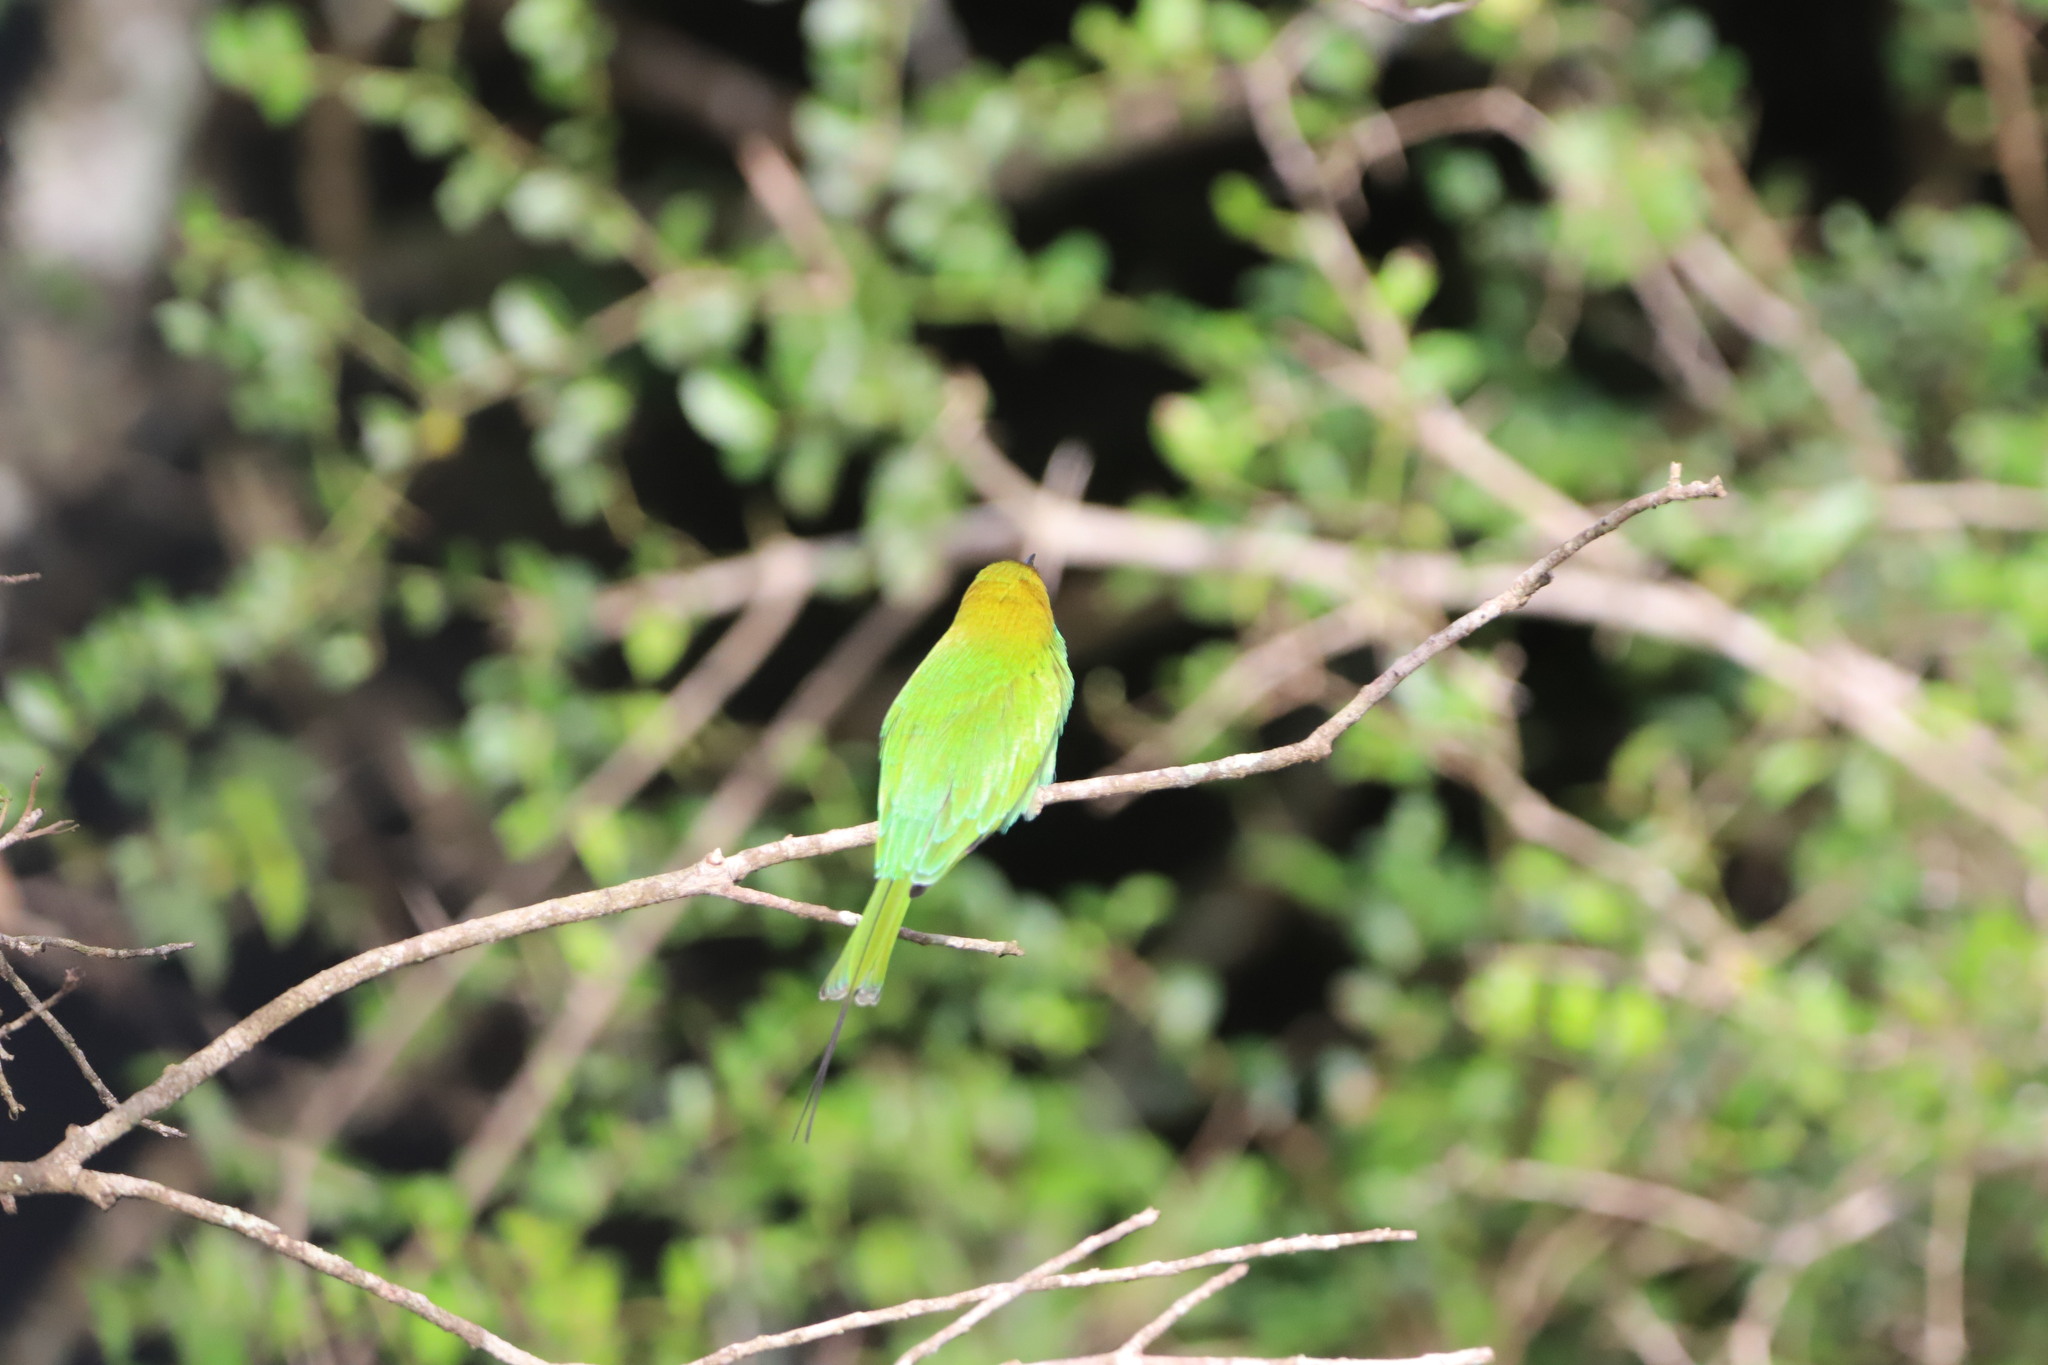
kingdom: Animalia
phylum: Chordata
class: Aves
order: Coraciiformes
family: Meropidae
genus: Merops
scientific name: Merops orientalis
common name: Green bee-eater
